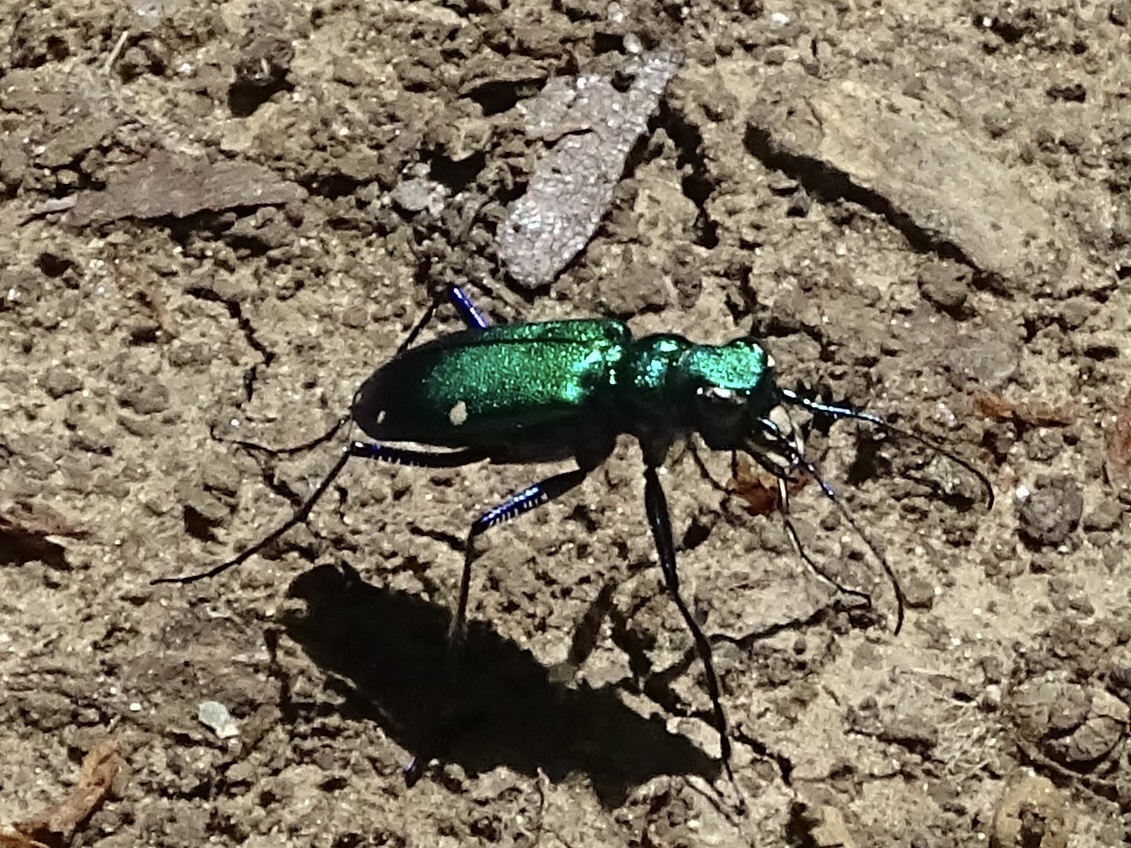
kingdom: Animalia
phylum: Arthropoda
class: Insecta
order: Coleoptera
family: Carabidae
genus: Cicindela
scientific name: Cicindela sexguttata
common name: Six-spotted tiger beetle
